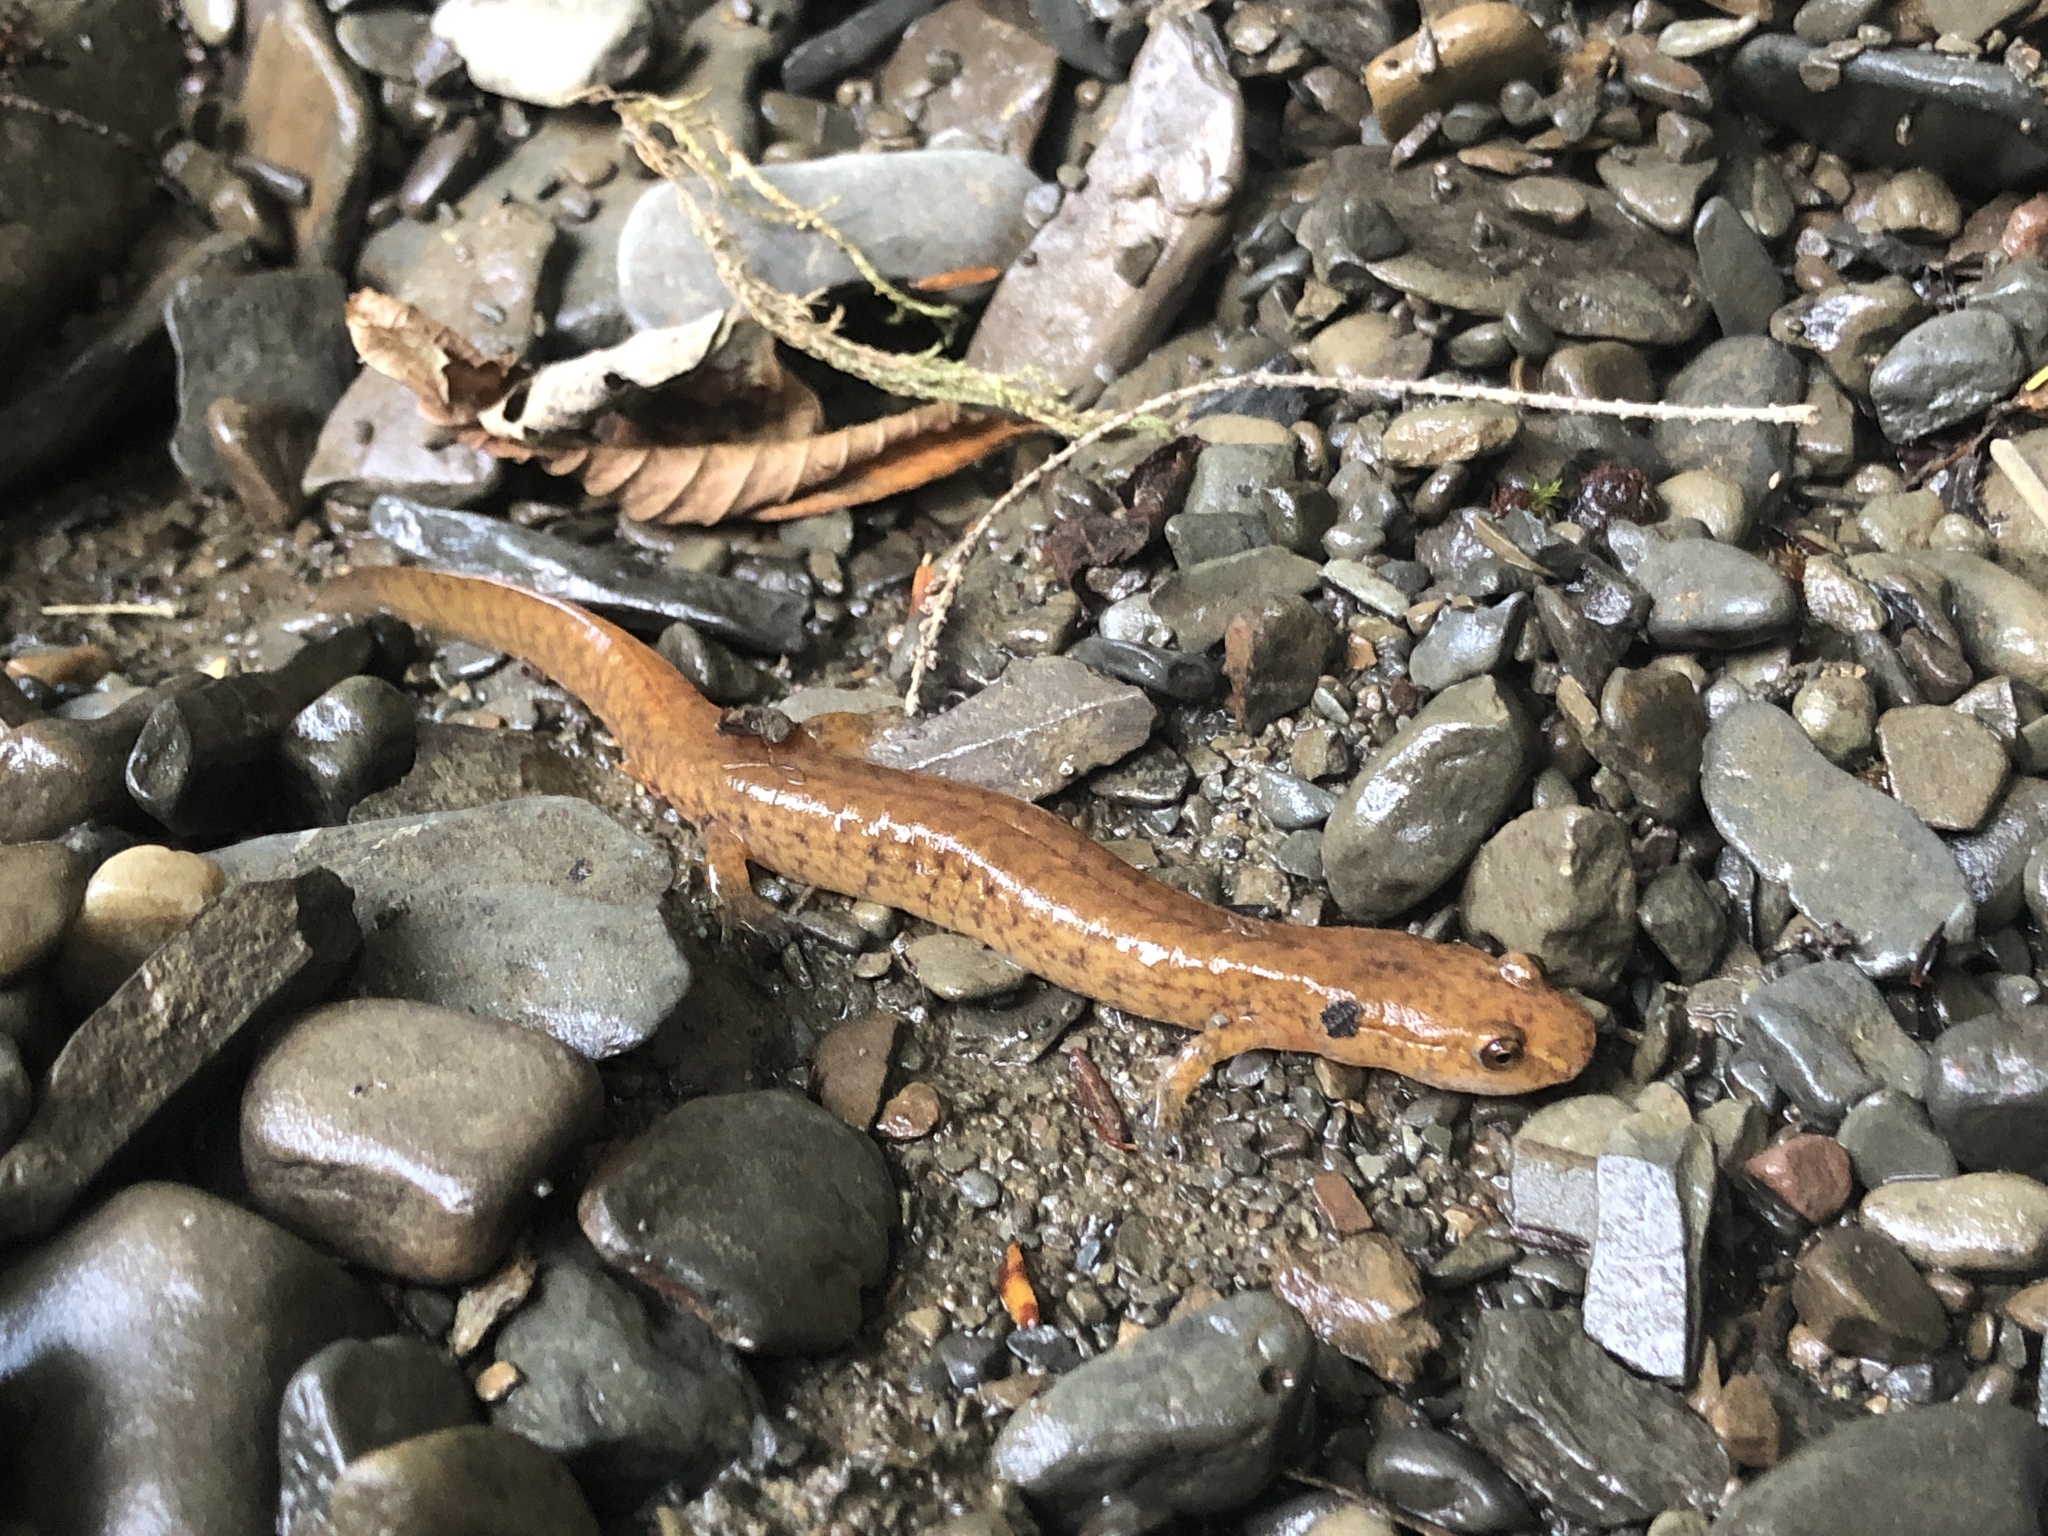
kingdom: Animalia
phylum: Chordata
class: Amphibia
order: Caudata
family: Plethodontidae
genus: Gyrinophilus
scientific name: Gyrinophilus porphyriticus
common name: Spring salamander
